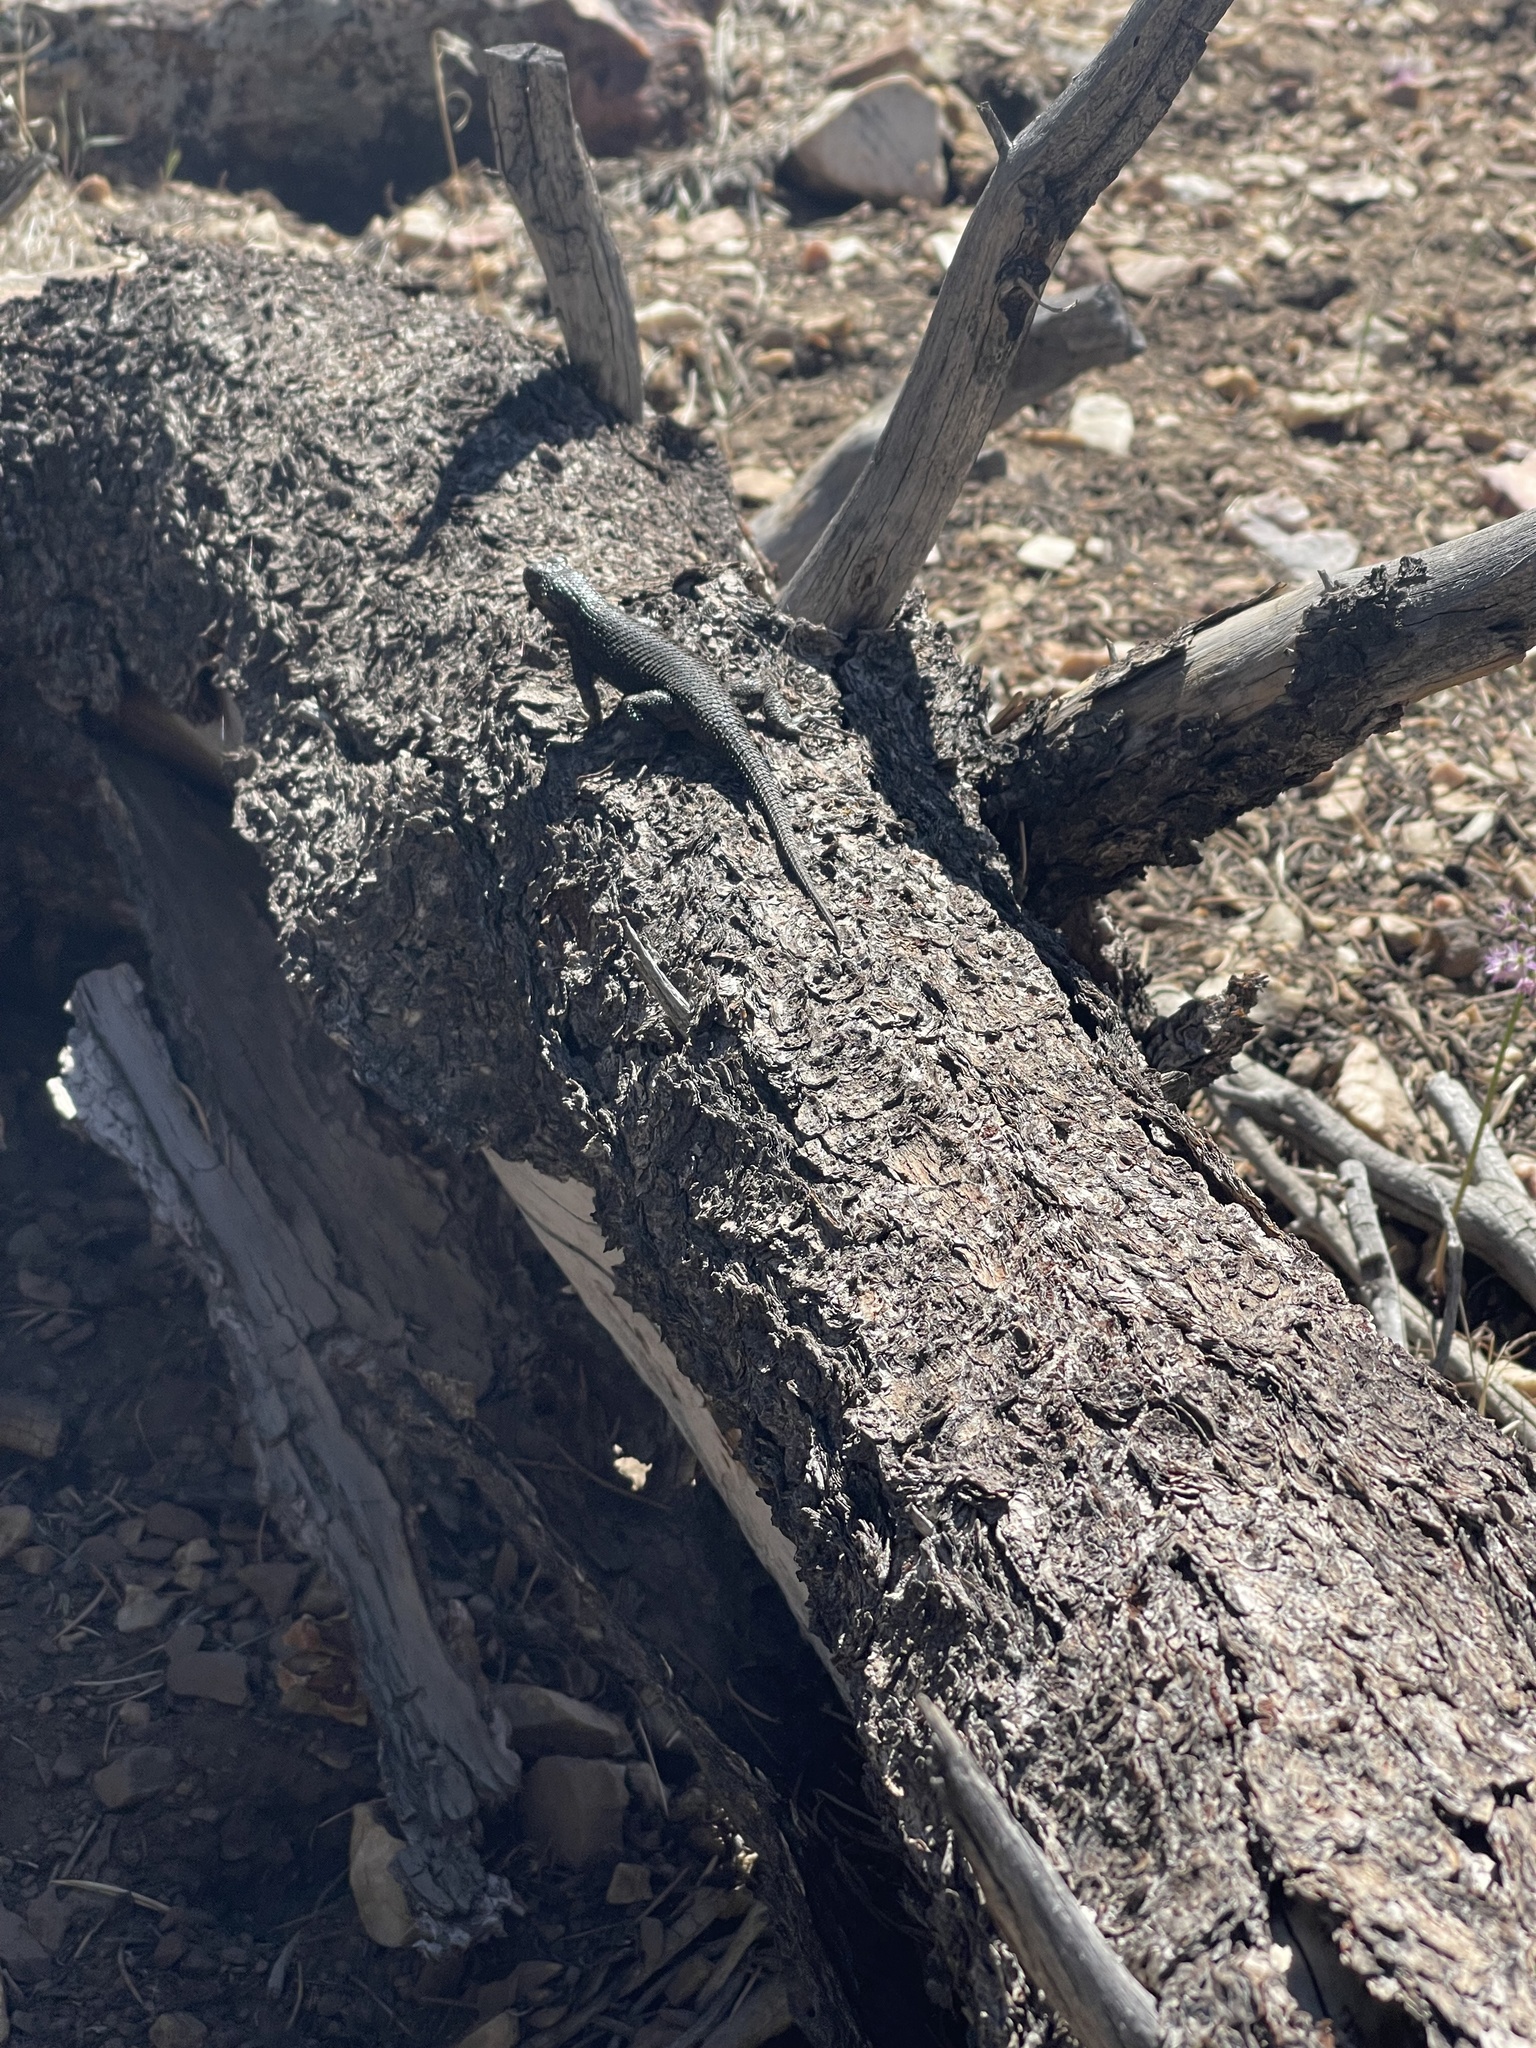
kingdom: Animalia
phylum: Chordata
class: Squamata
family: Phrynosomatidae
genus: Sceloporus
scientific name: Sceloporus occidentalis
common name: Western fence lizard
